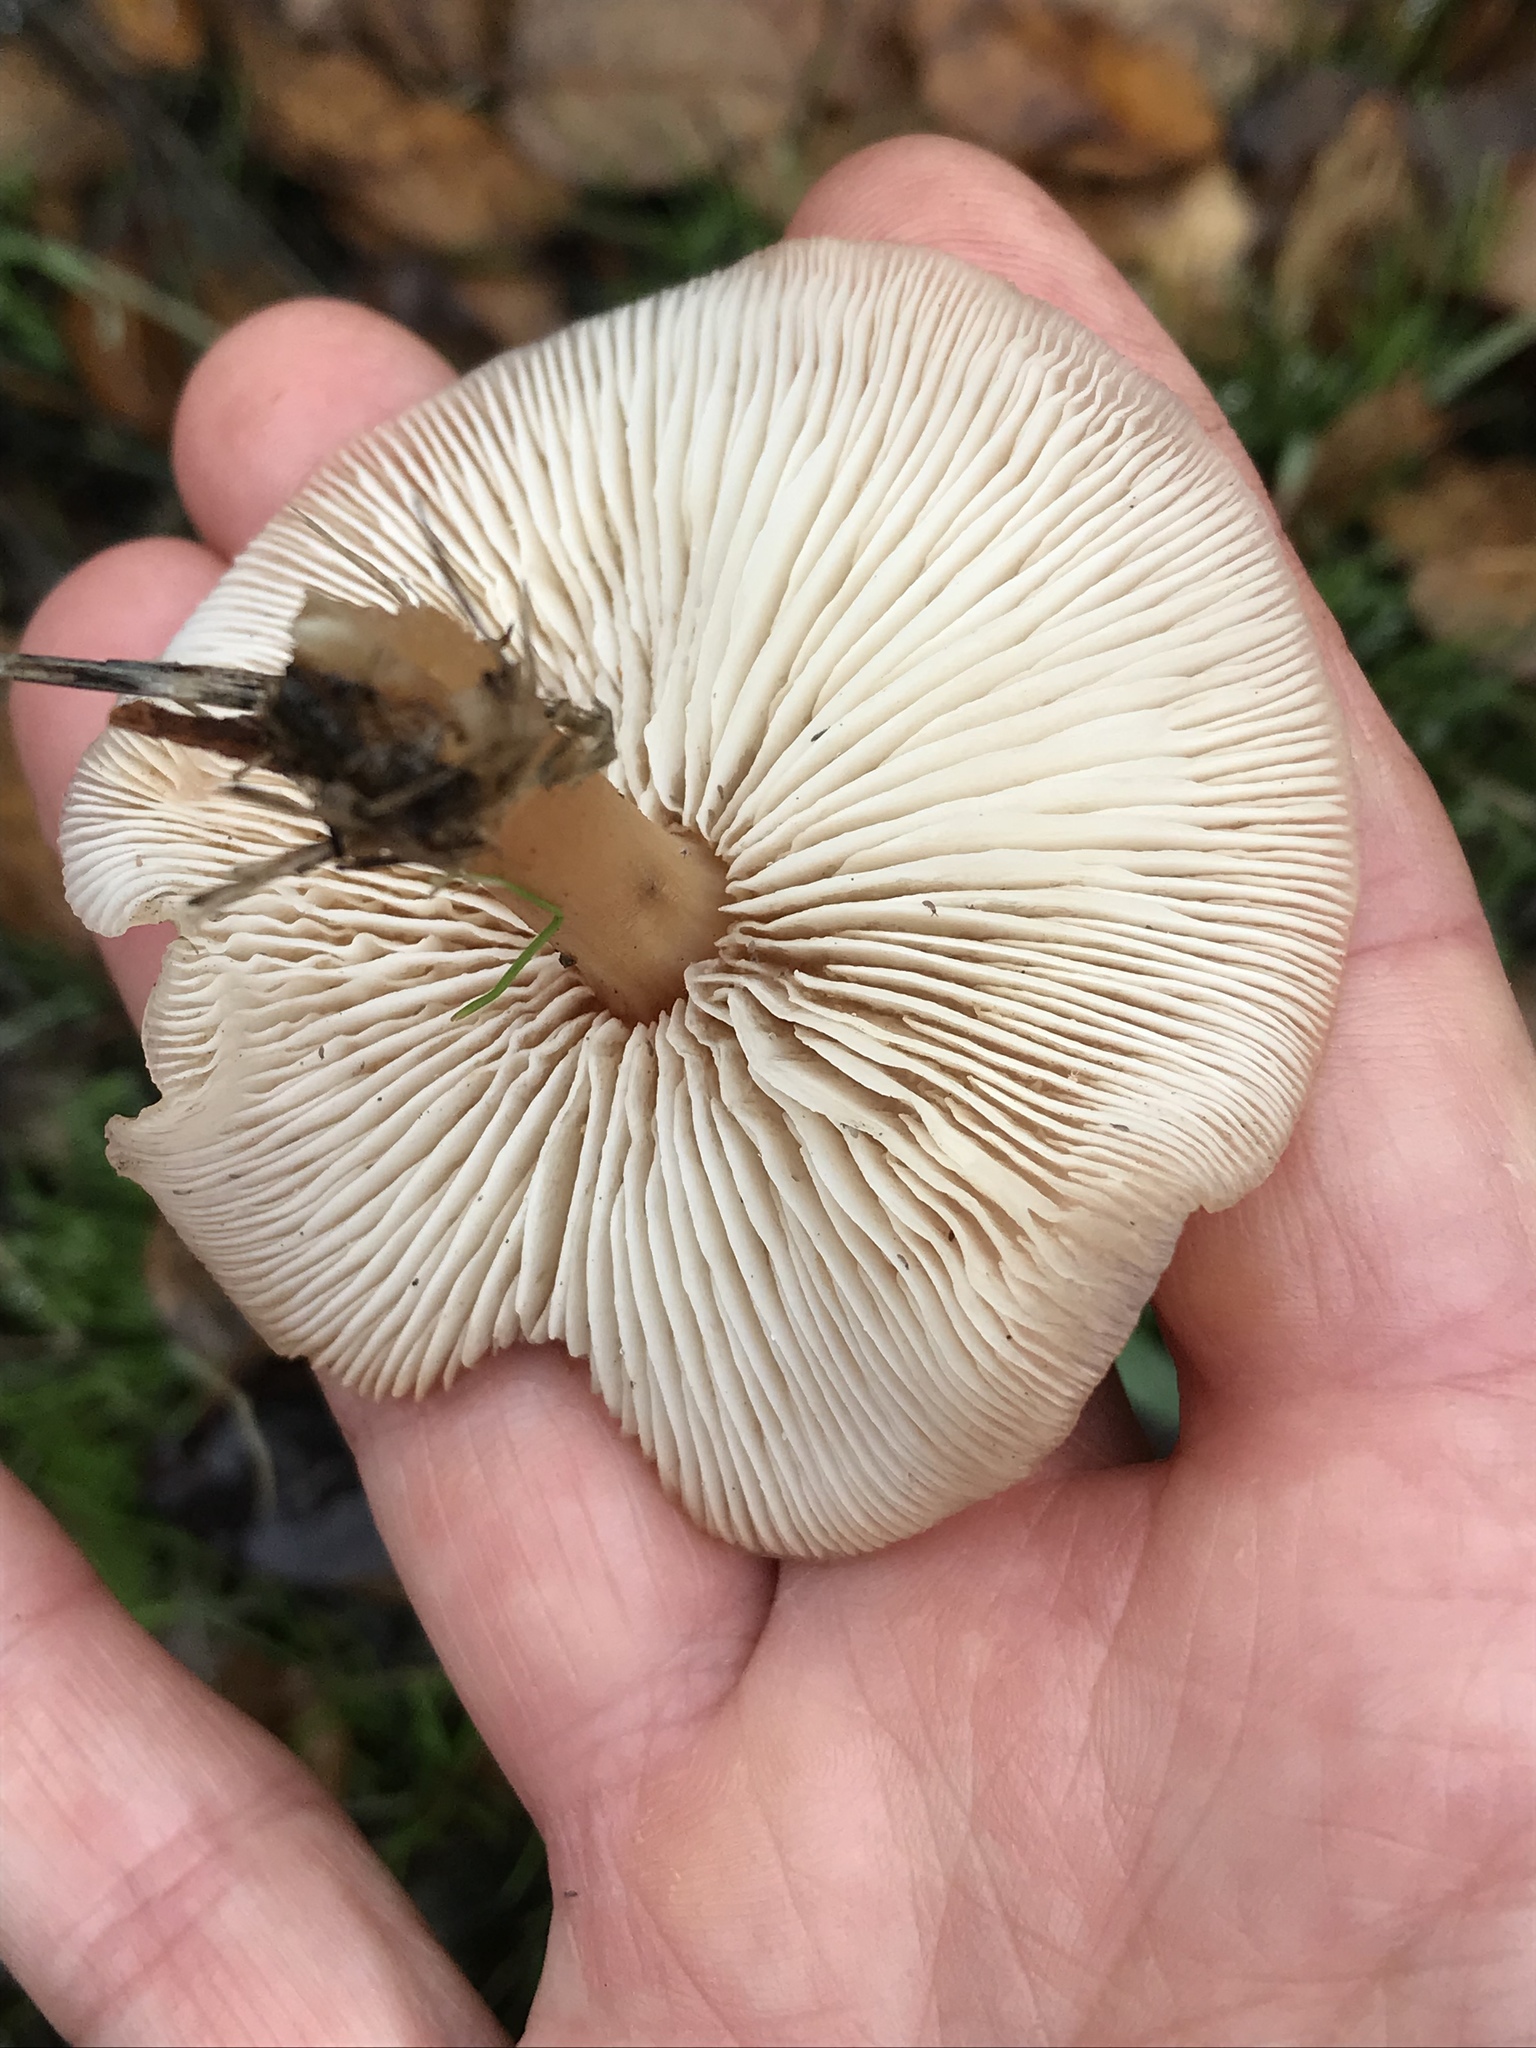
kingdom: Fungi
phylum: Basidiomycota
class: Agaricomycetes
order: Agaricales
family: Omphalotaceae
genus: Gymnopus
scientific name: Gymnopus dryophilus
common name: Penny top
